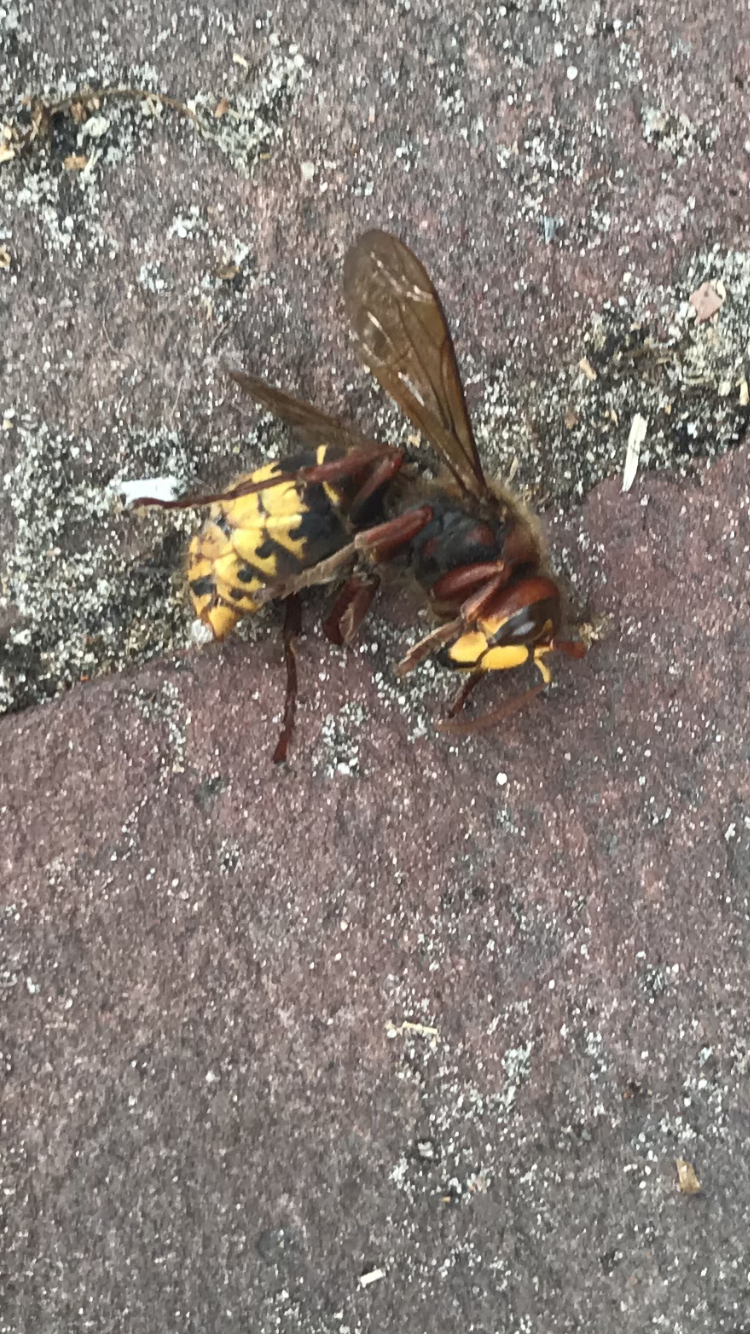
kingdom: Animalia
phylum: Arthropoda
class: Insecta
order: Hymenoptera
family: Vespidae
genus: Vespa
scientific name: Vespa crabro
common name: Hornet
